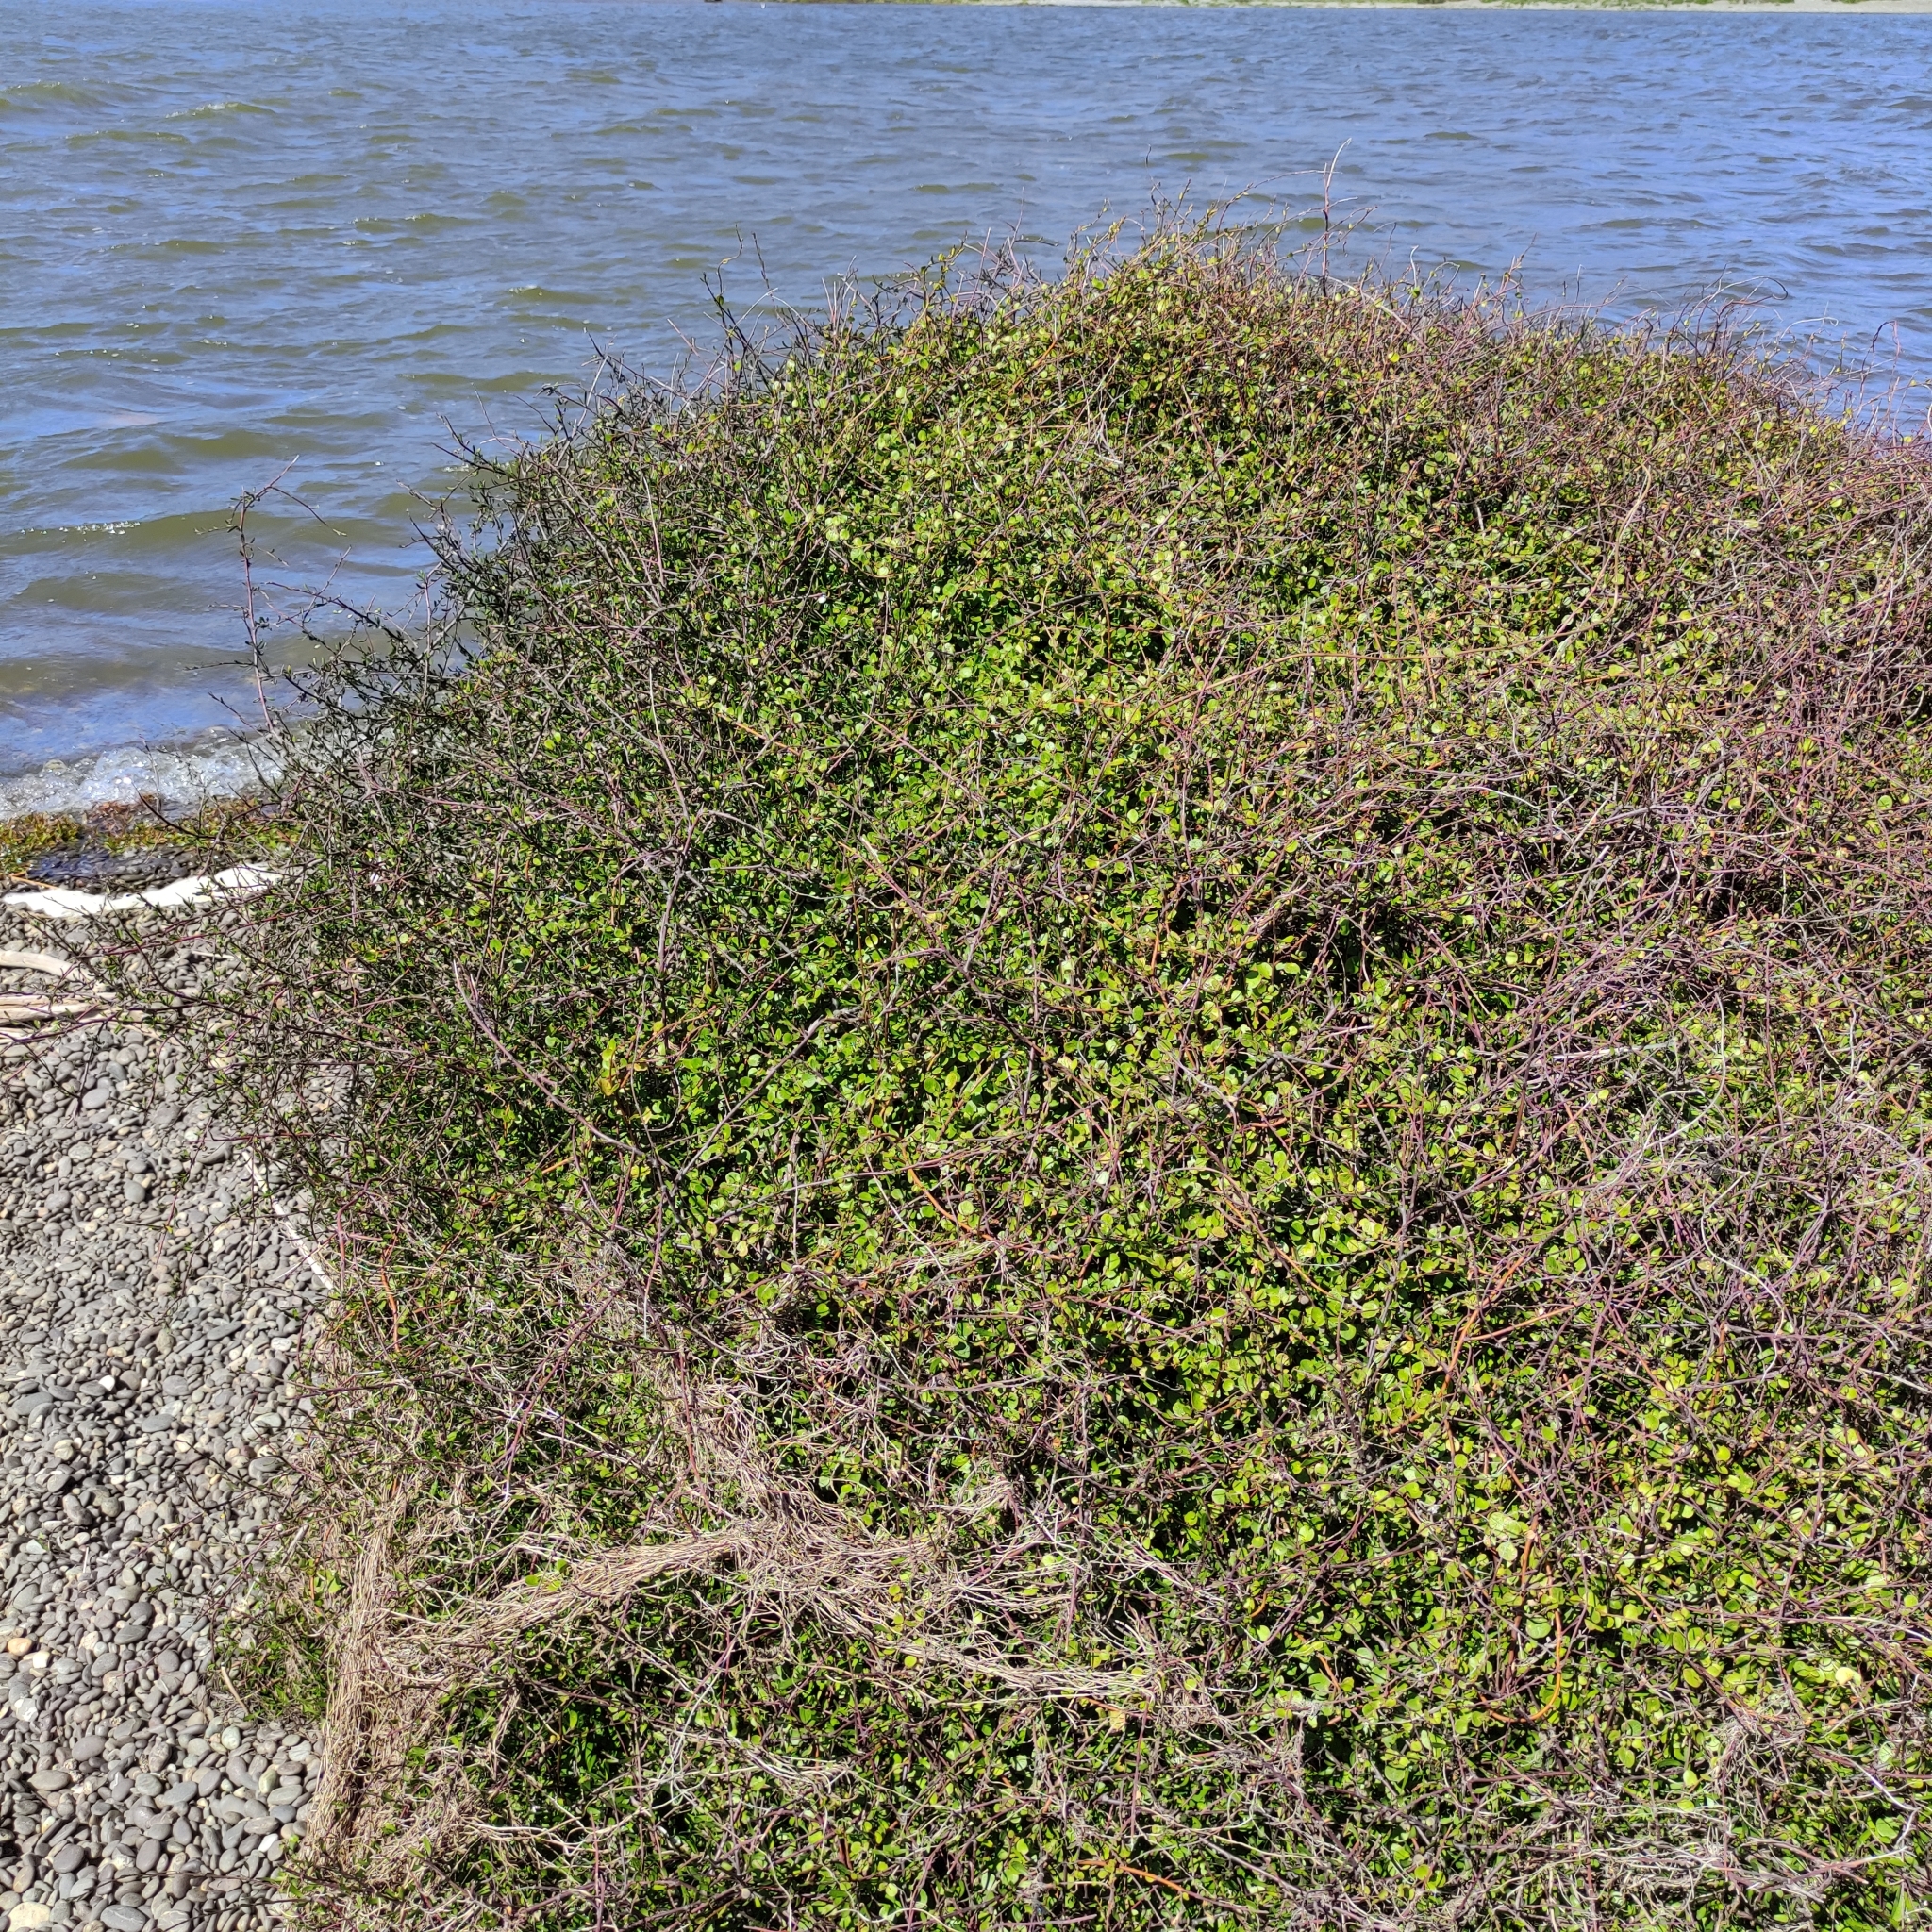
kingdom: Plantae
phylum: Tracheophyta
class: Magnoliopsida
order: Caryophyllales
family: Polygonaceae
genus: Muehlenbeckia
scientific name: Muehlenbeckia complexa
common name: Wireplant
